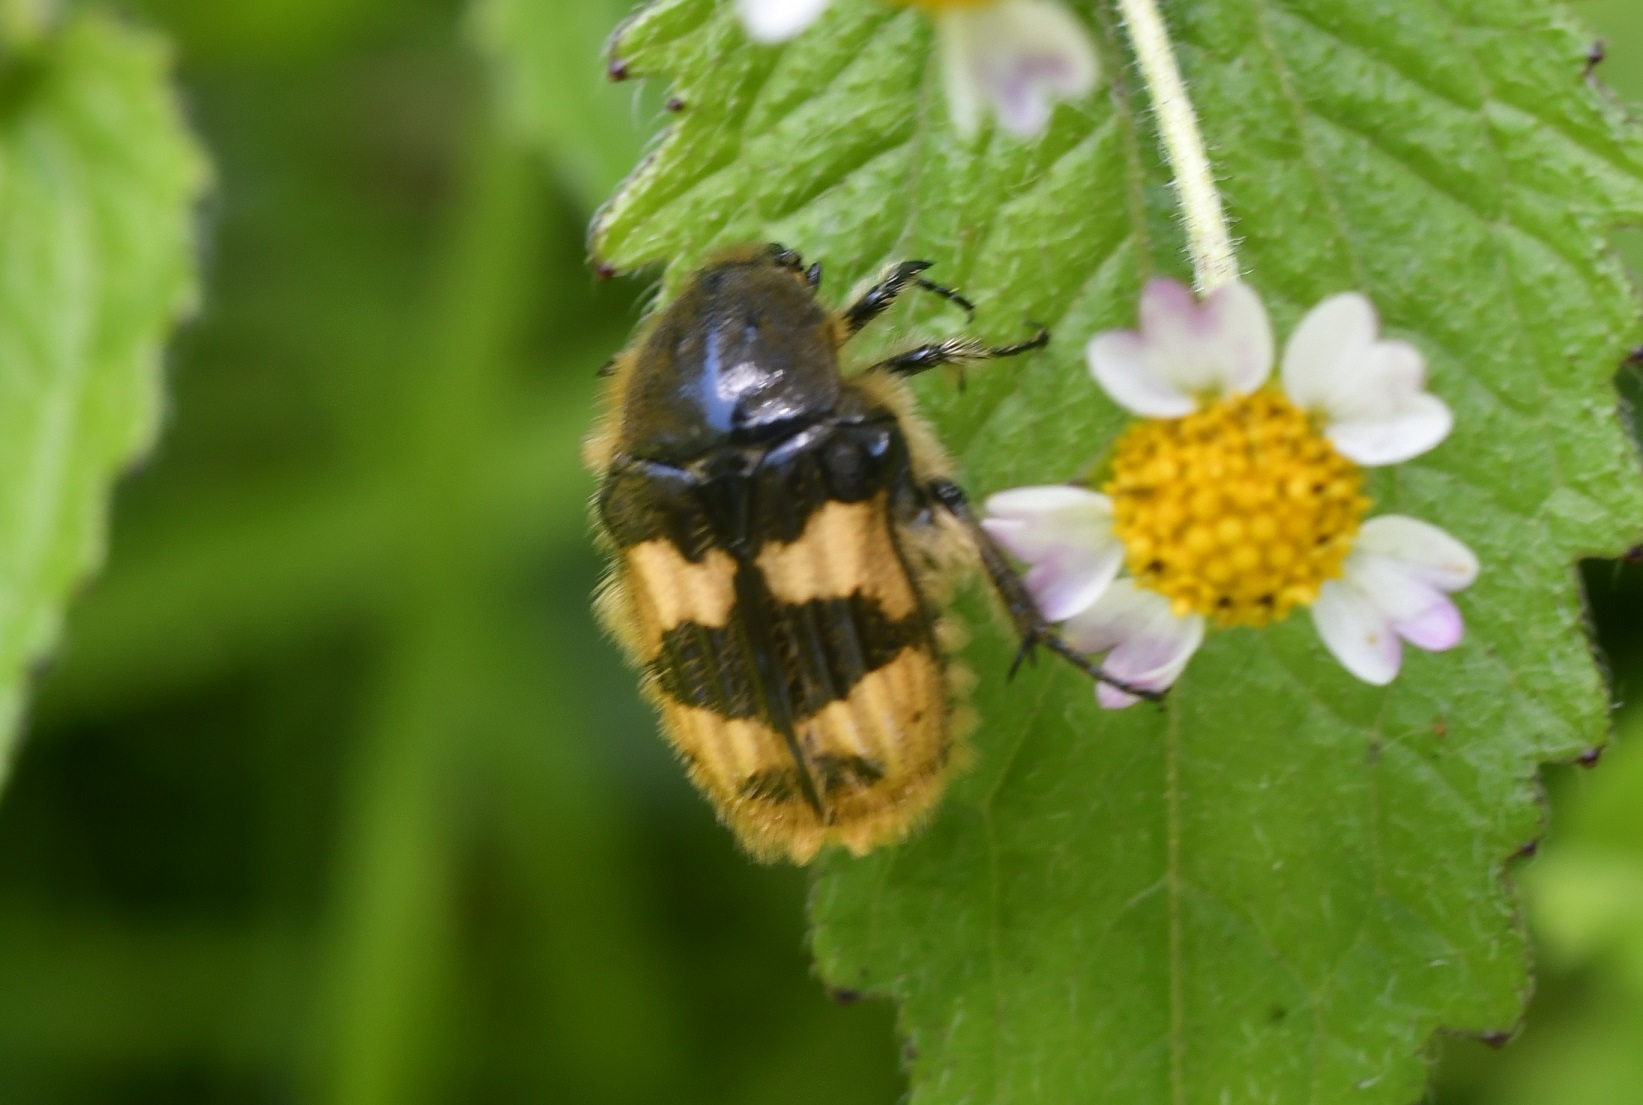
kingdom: Animalia
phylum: Arthropoda
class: Insecta
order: Coleoptera
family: Scarabaeidae
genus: Euphoria
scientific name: Euphoria basalis
